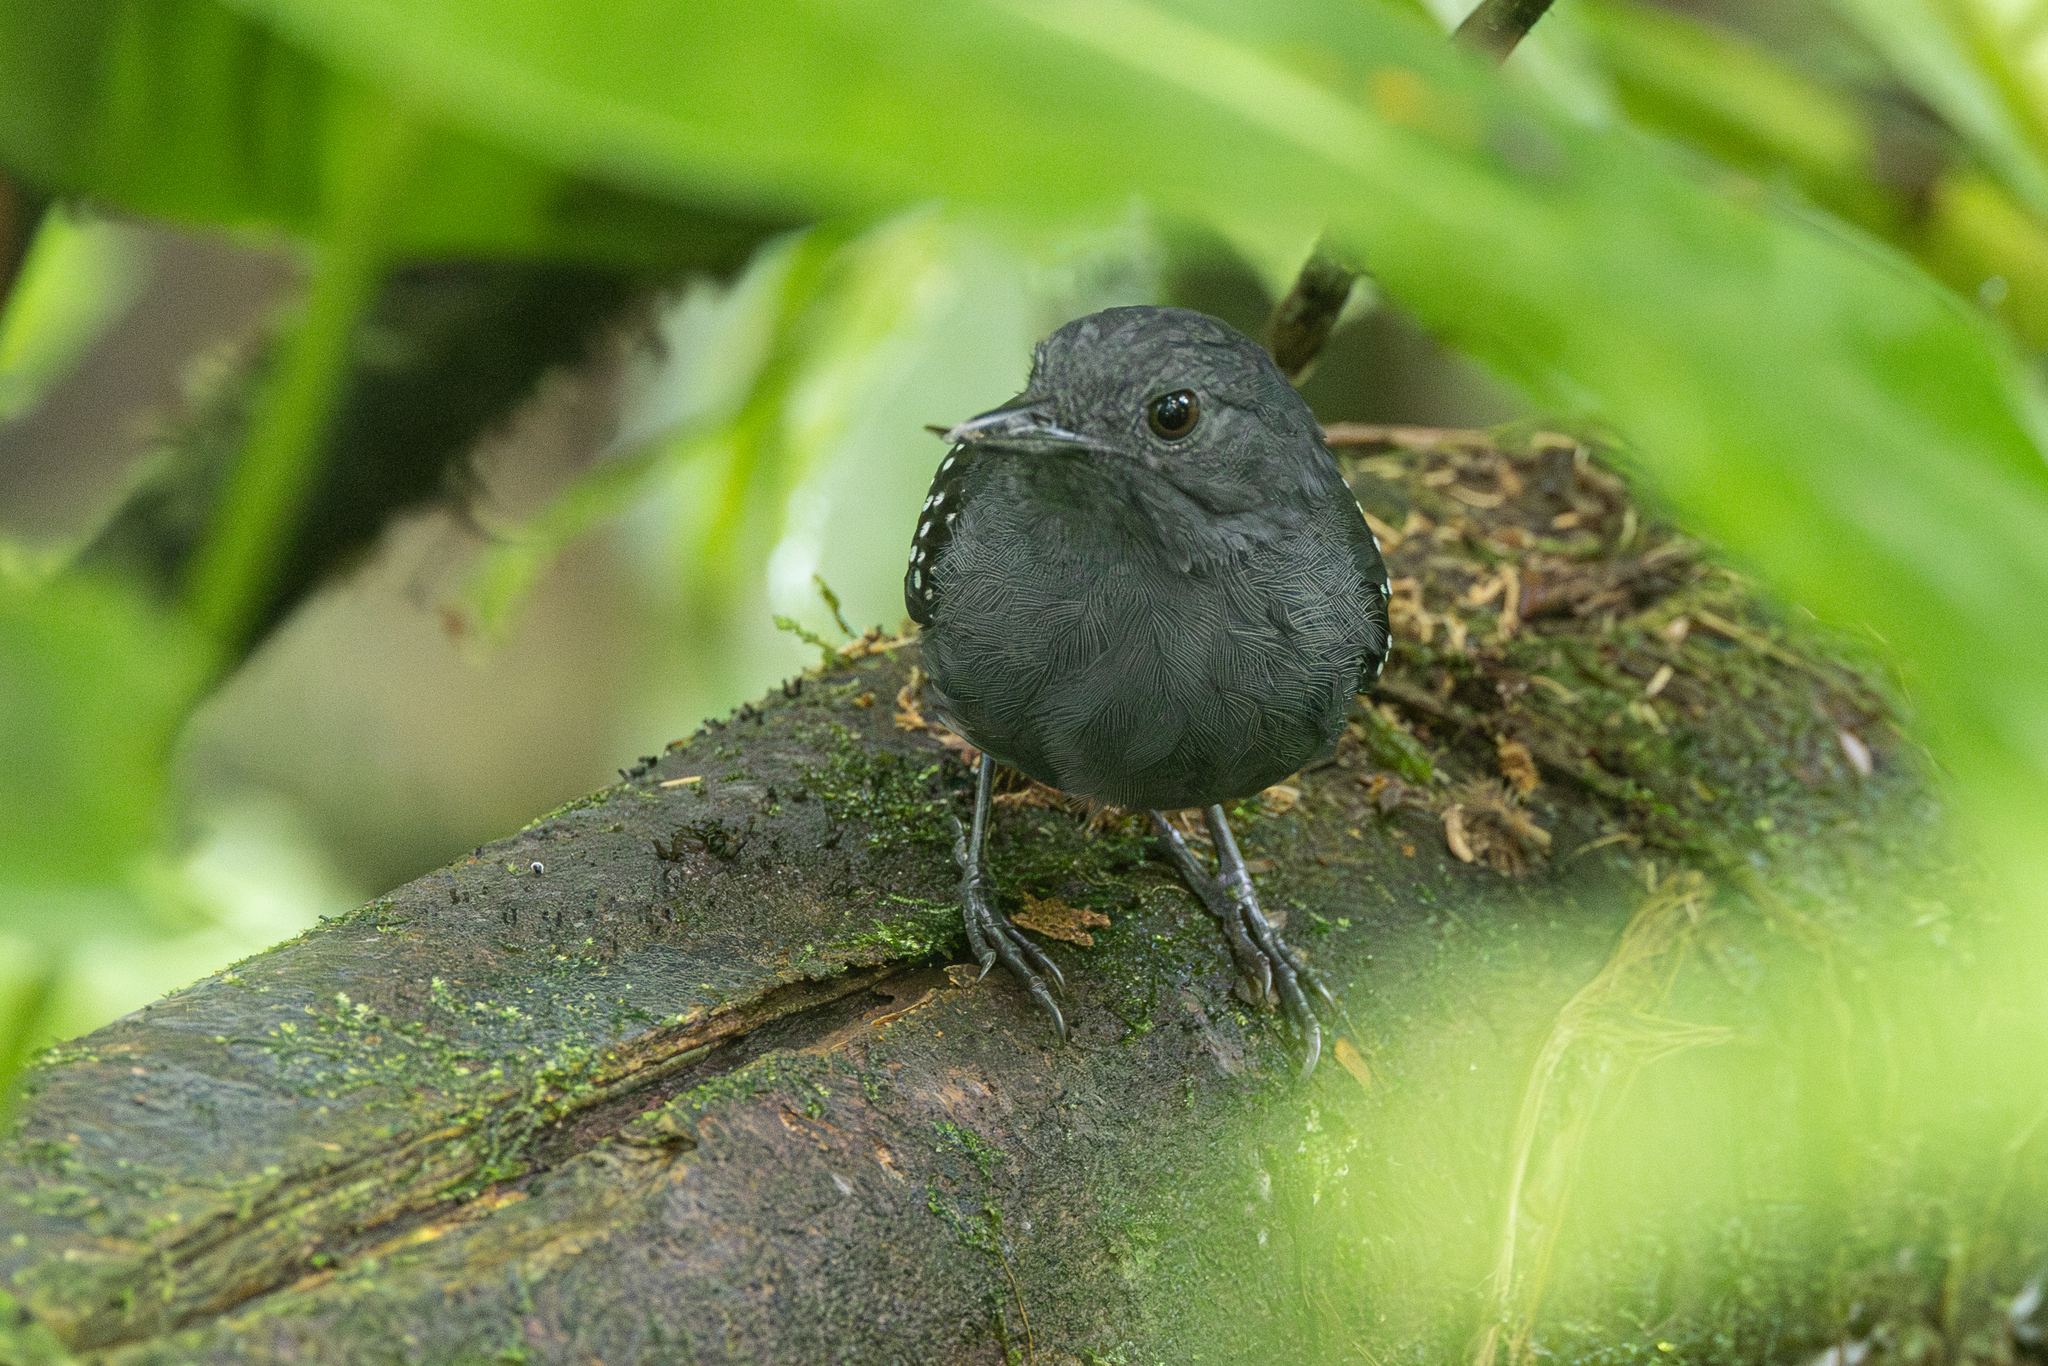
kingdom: Animalia
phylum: Chordata
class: Aves
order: Passeriformes
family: Thamnophilidae
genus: Schistocichla
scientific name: Schistocichla leucostigma
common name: Spot-winged antbird
